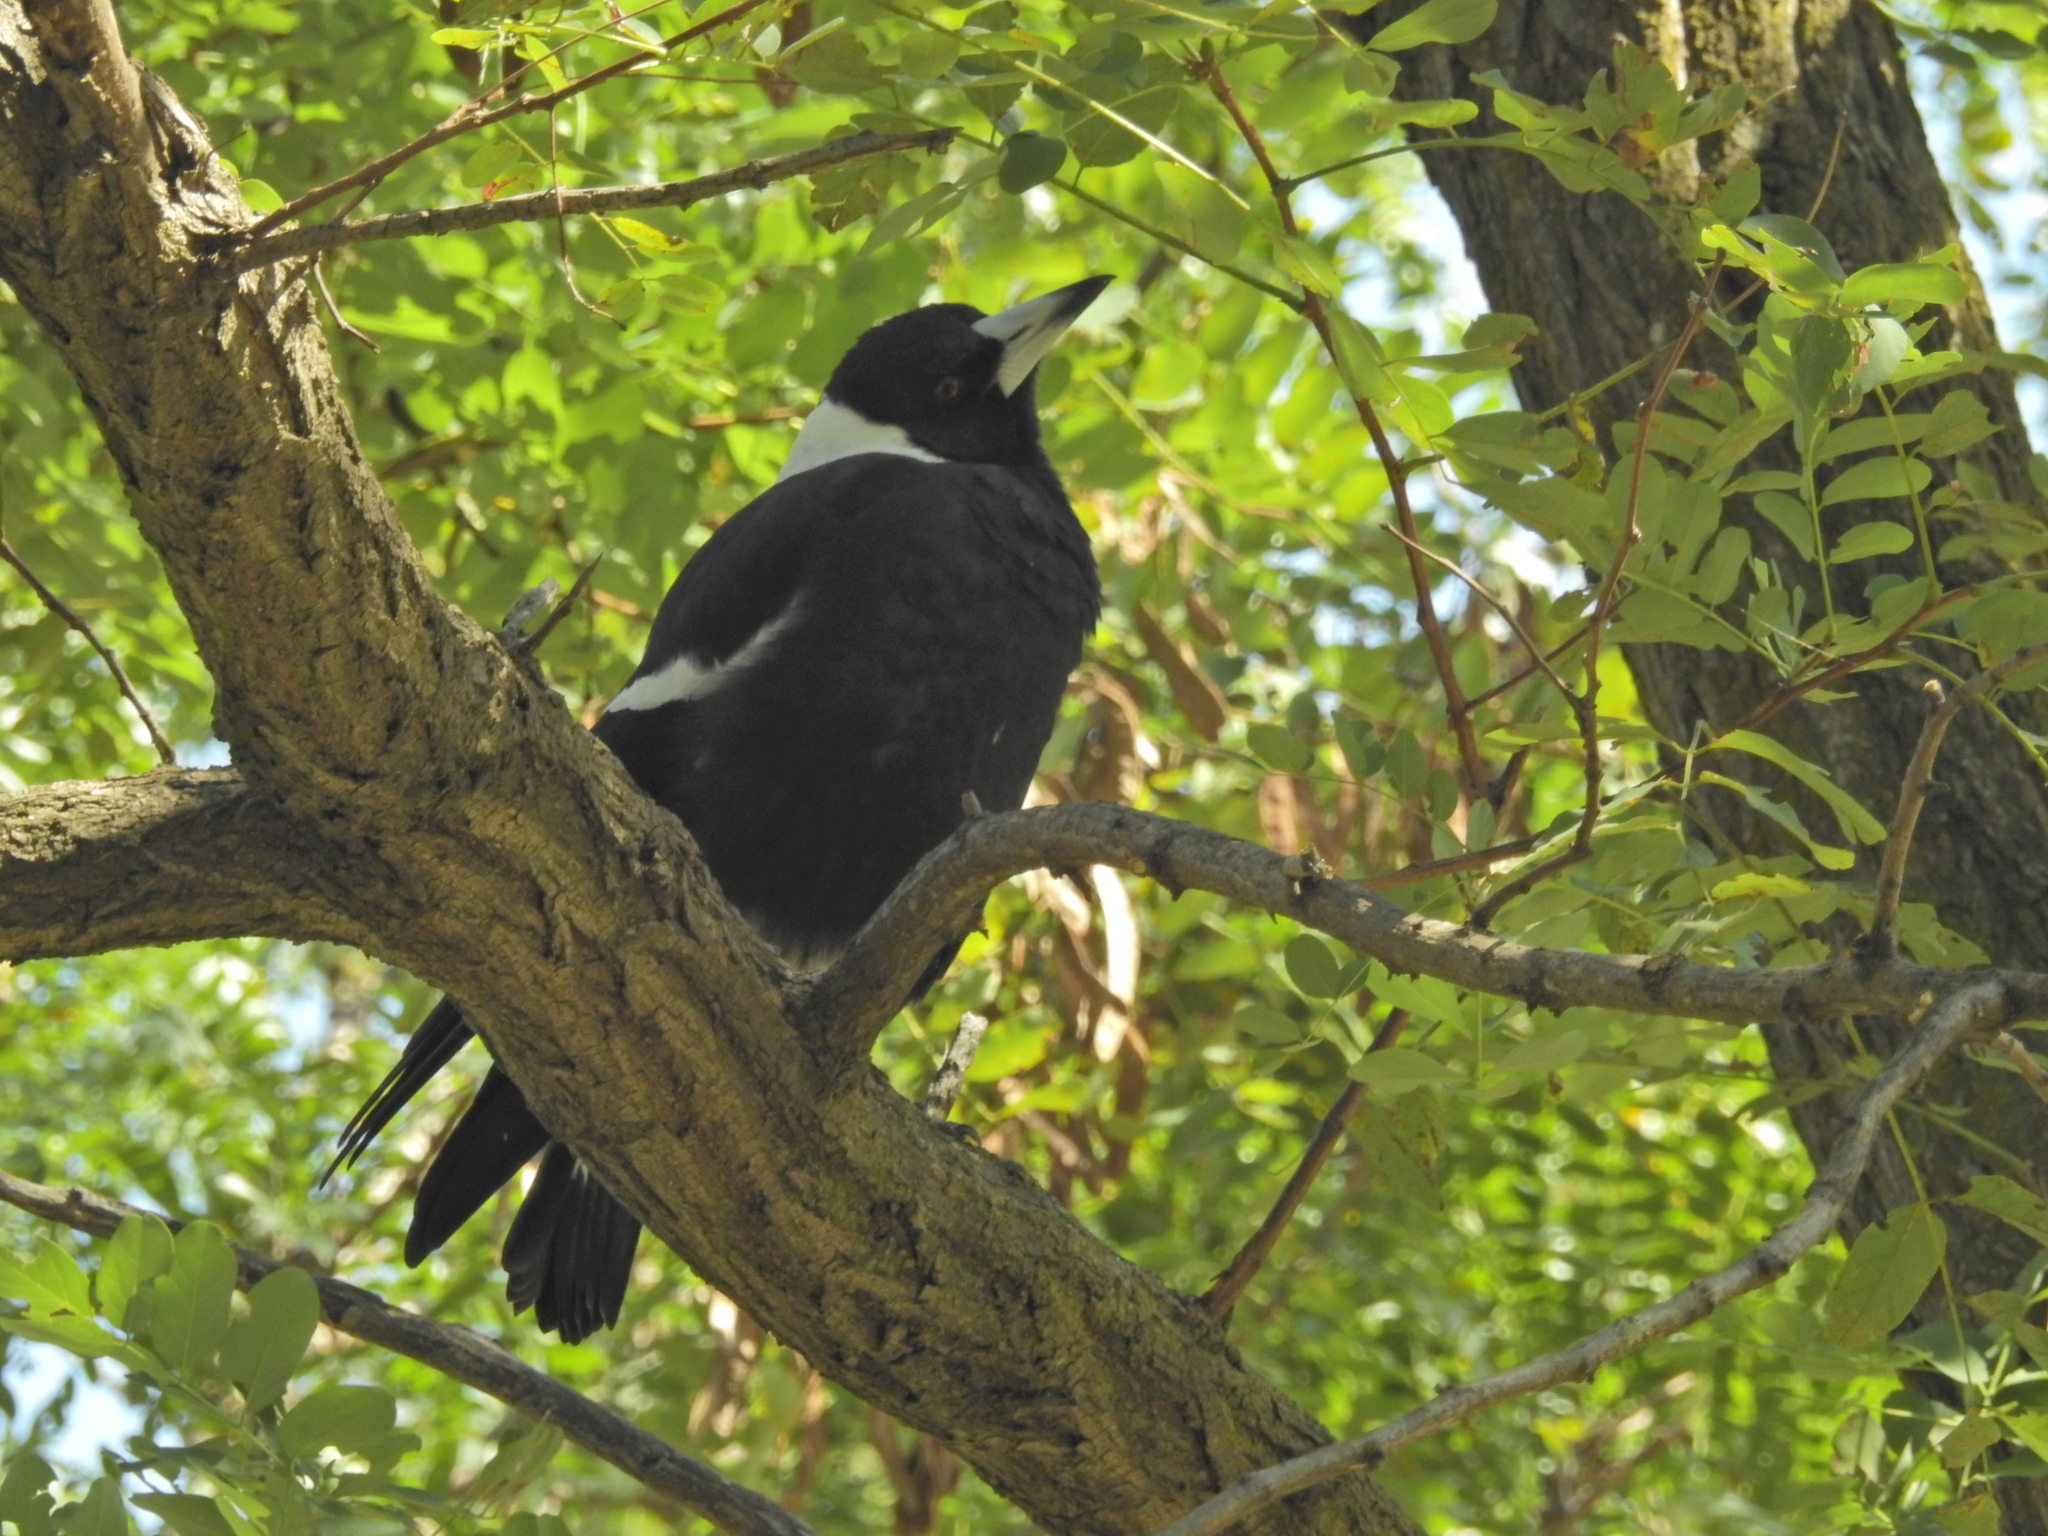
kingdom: Animalia
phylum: Chordata
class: Aves
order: Passeriformes
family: Cracticidae
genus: Gymnorhina
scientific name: Gymnorhina tibicen
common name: Australian magpie
